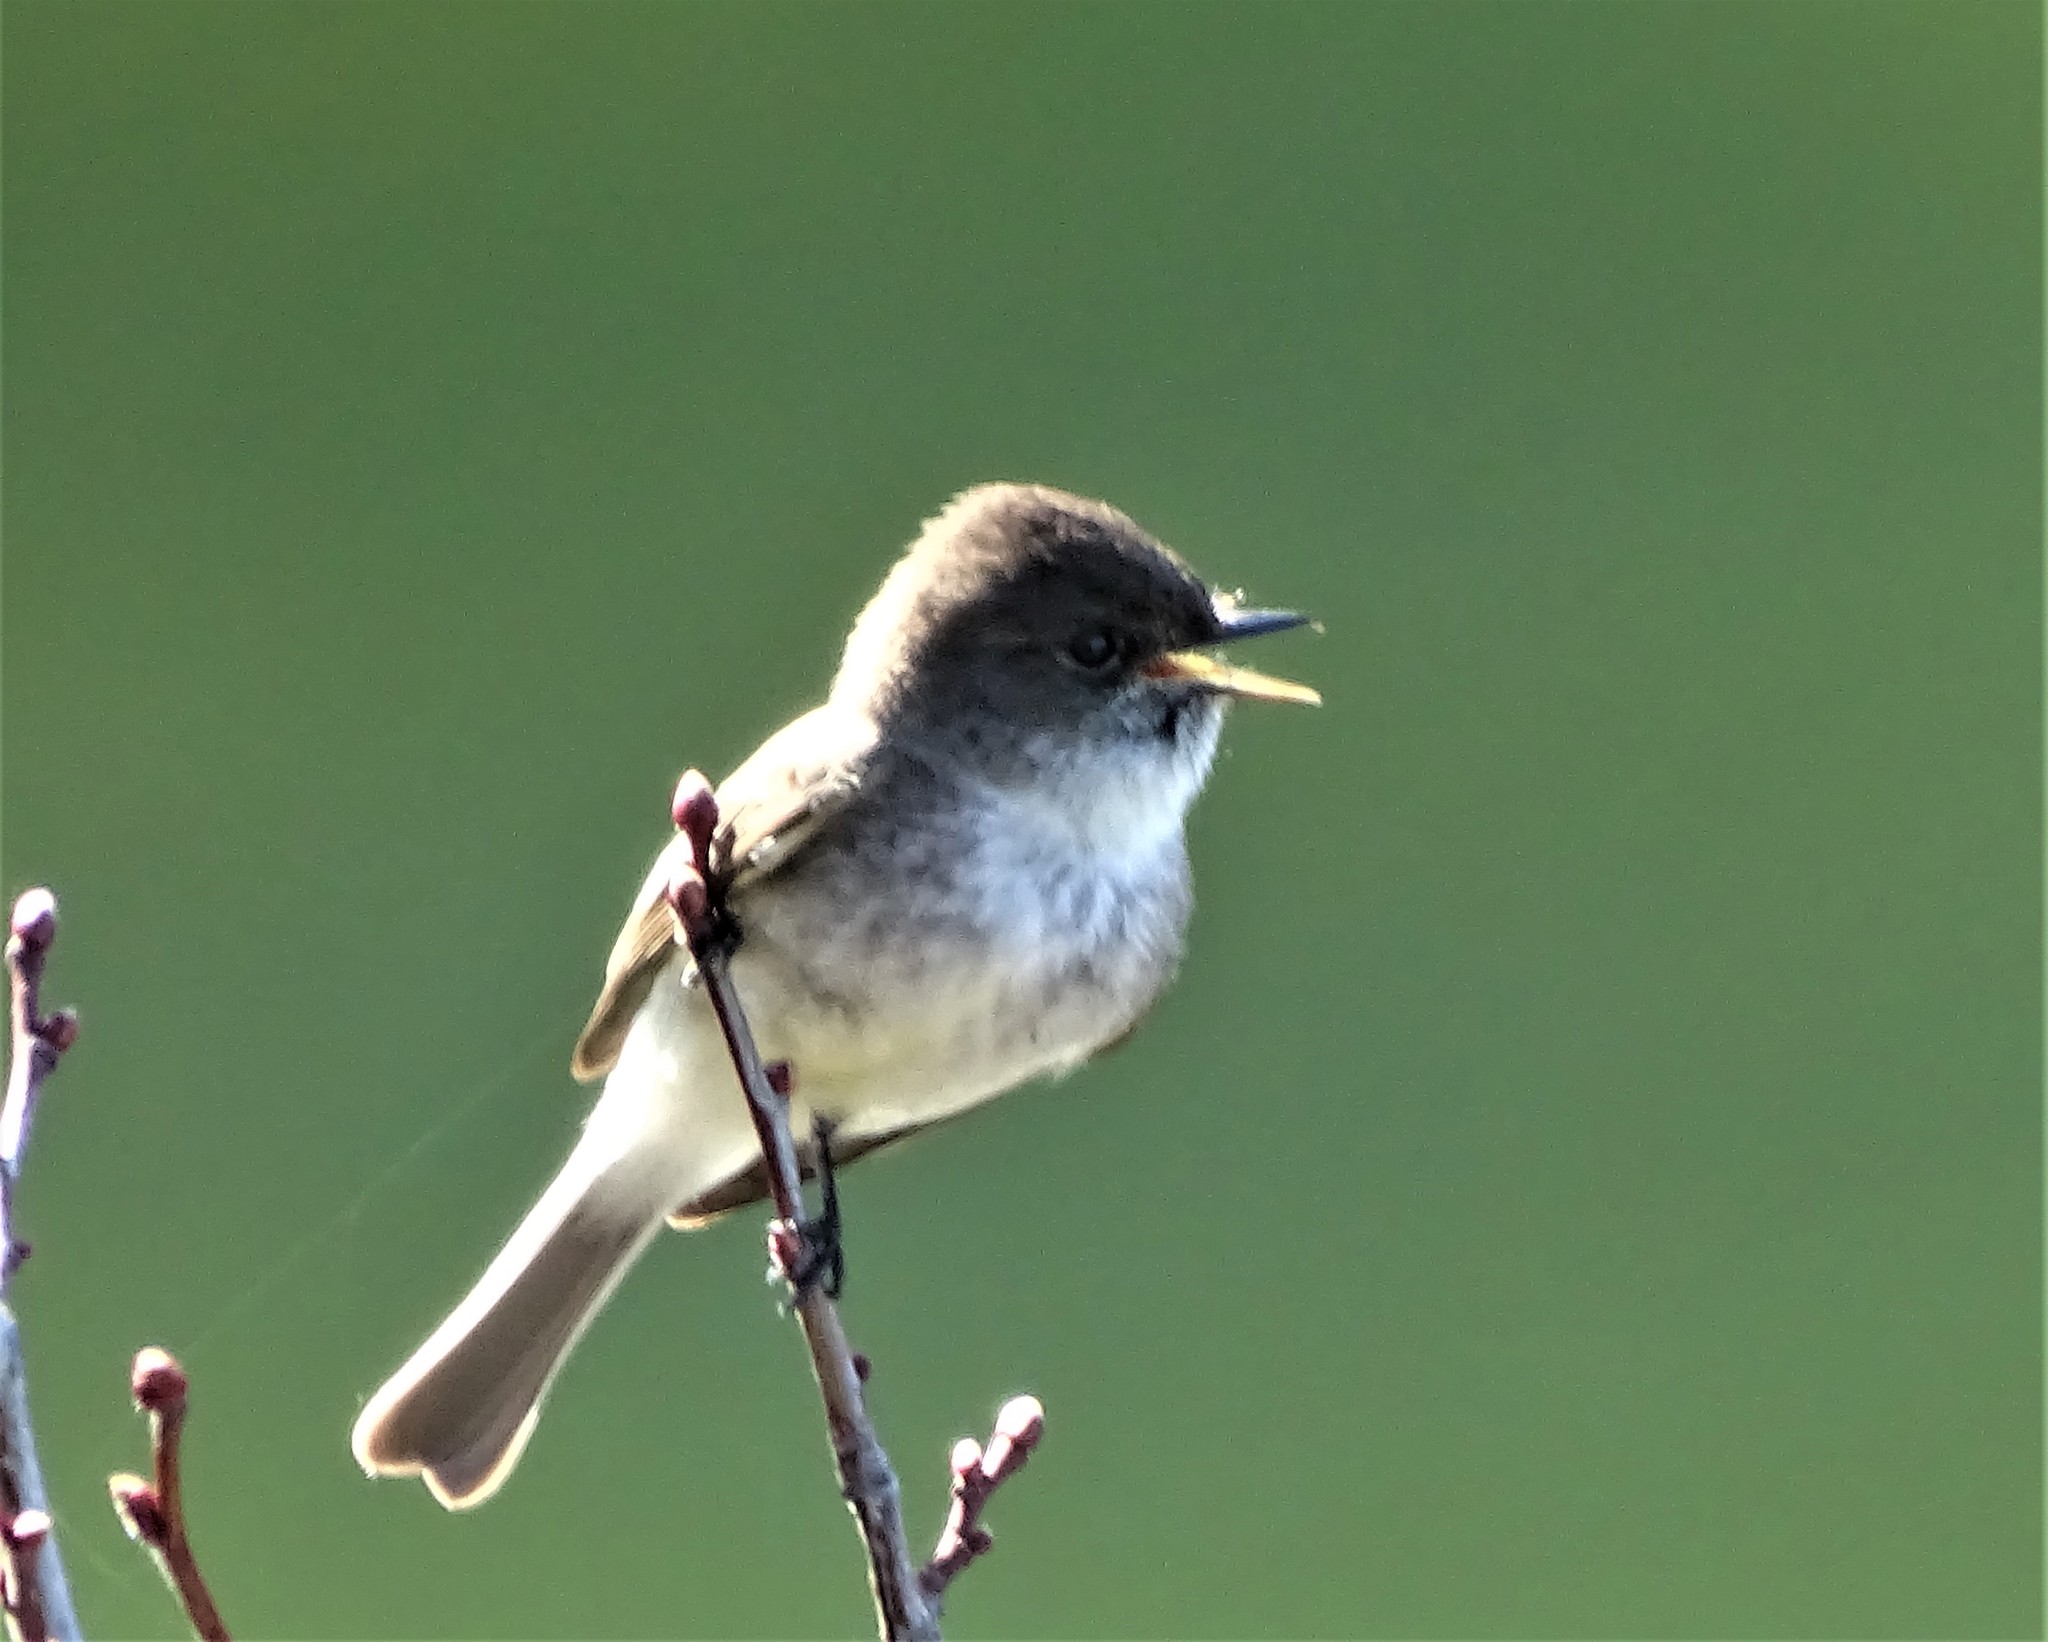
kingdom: Animalia
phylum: Chordata
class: Aves
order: Passeriformes
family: Tyrannidae
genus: Sayornis
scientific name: Sayornis phoebe
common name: Eastern phoebe
